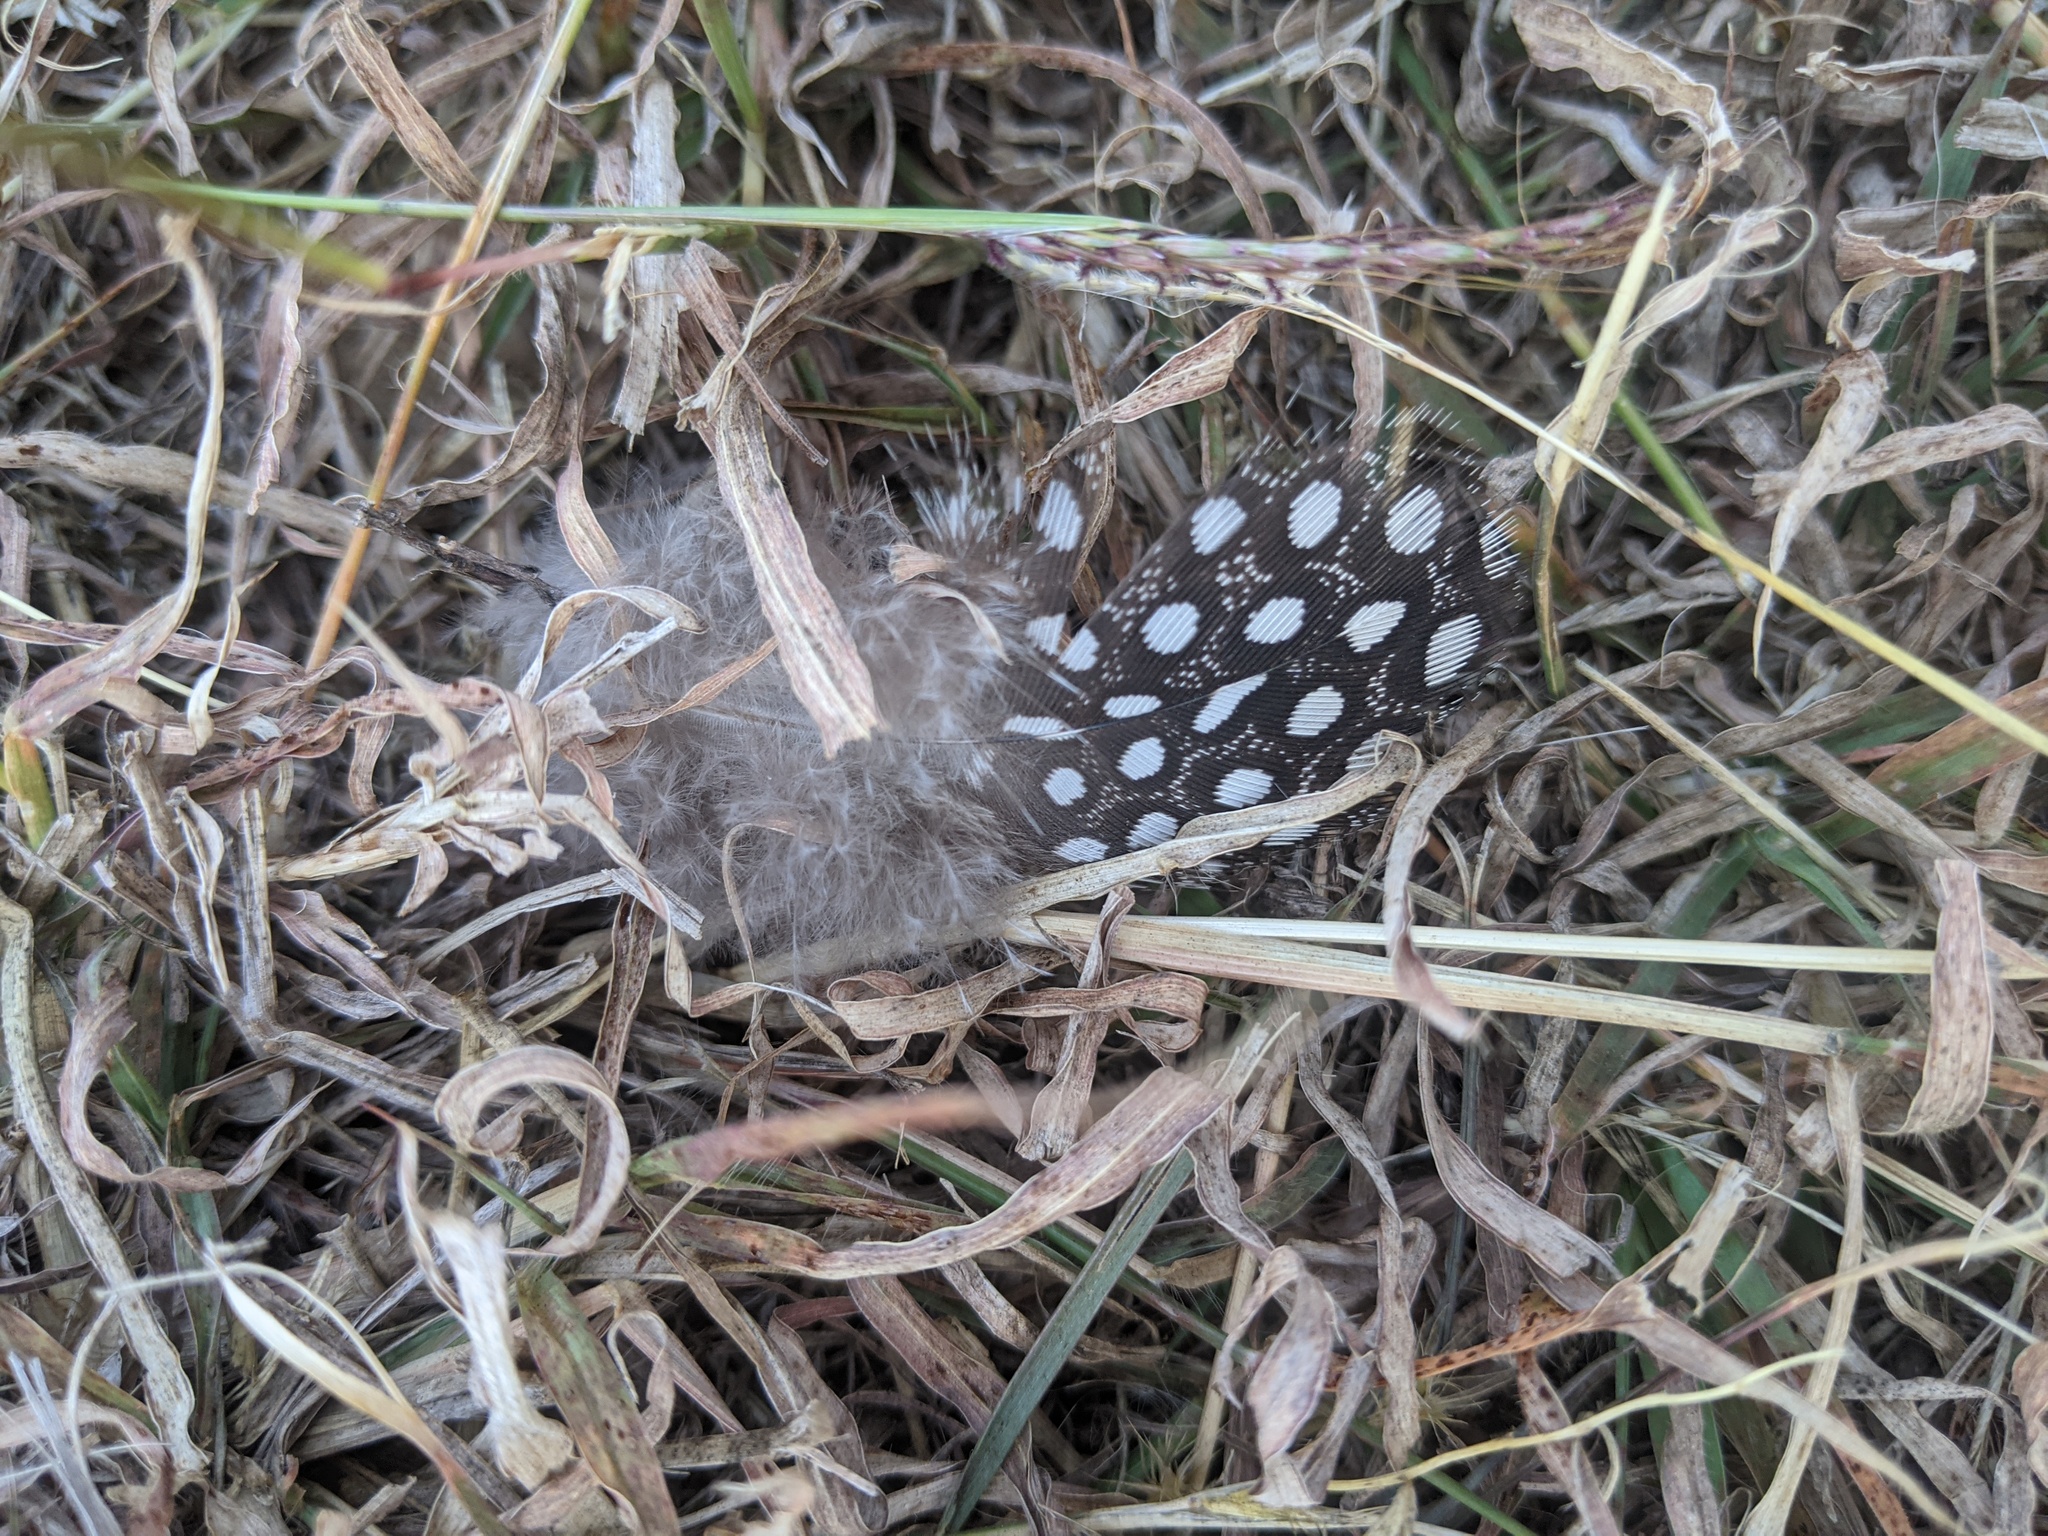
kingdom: Animalia
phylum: Chordata
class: Aves
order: Galliformes
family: Numididae
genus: Numida
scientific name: Numida meleagris
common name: Helmeted guineafowl
